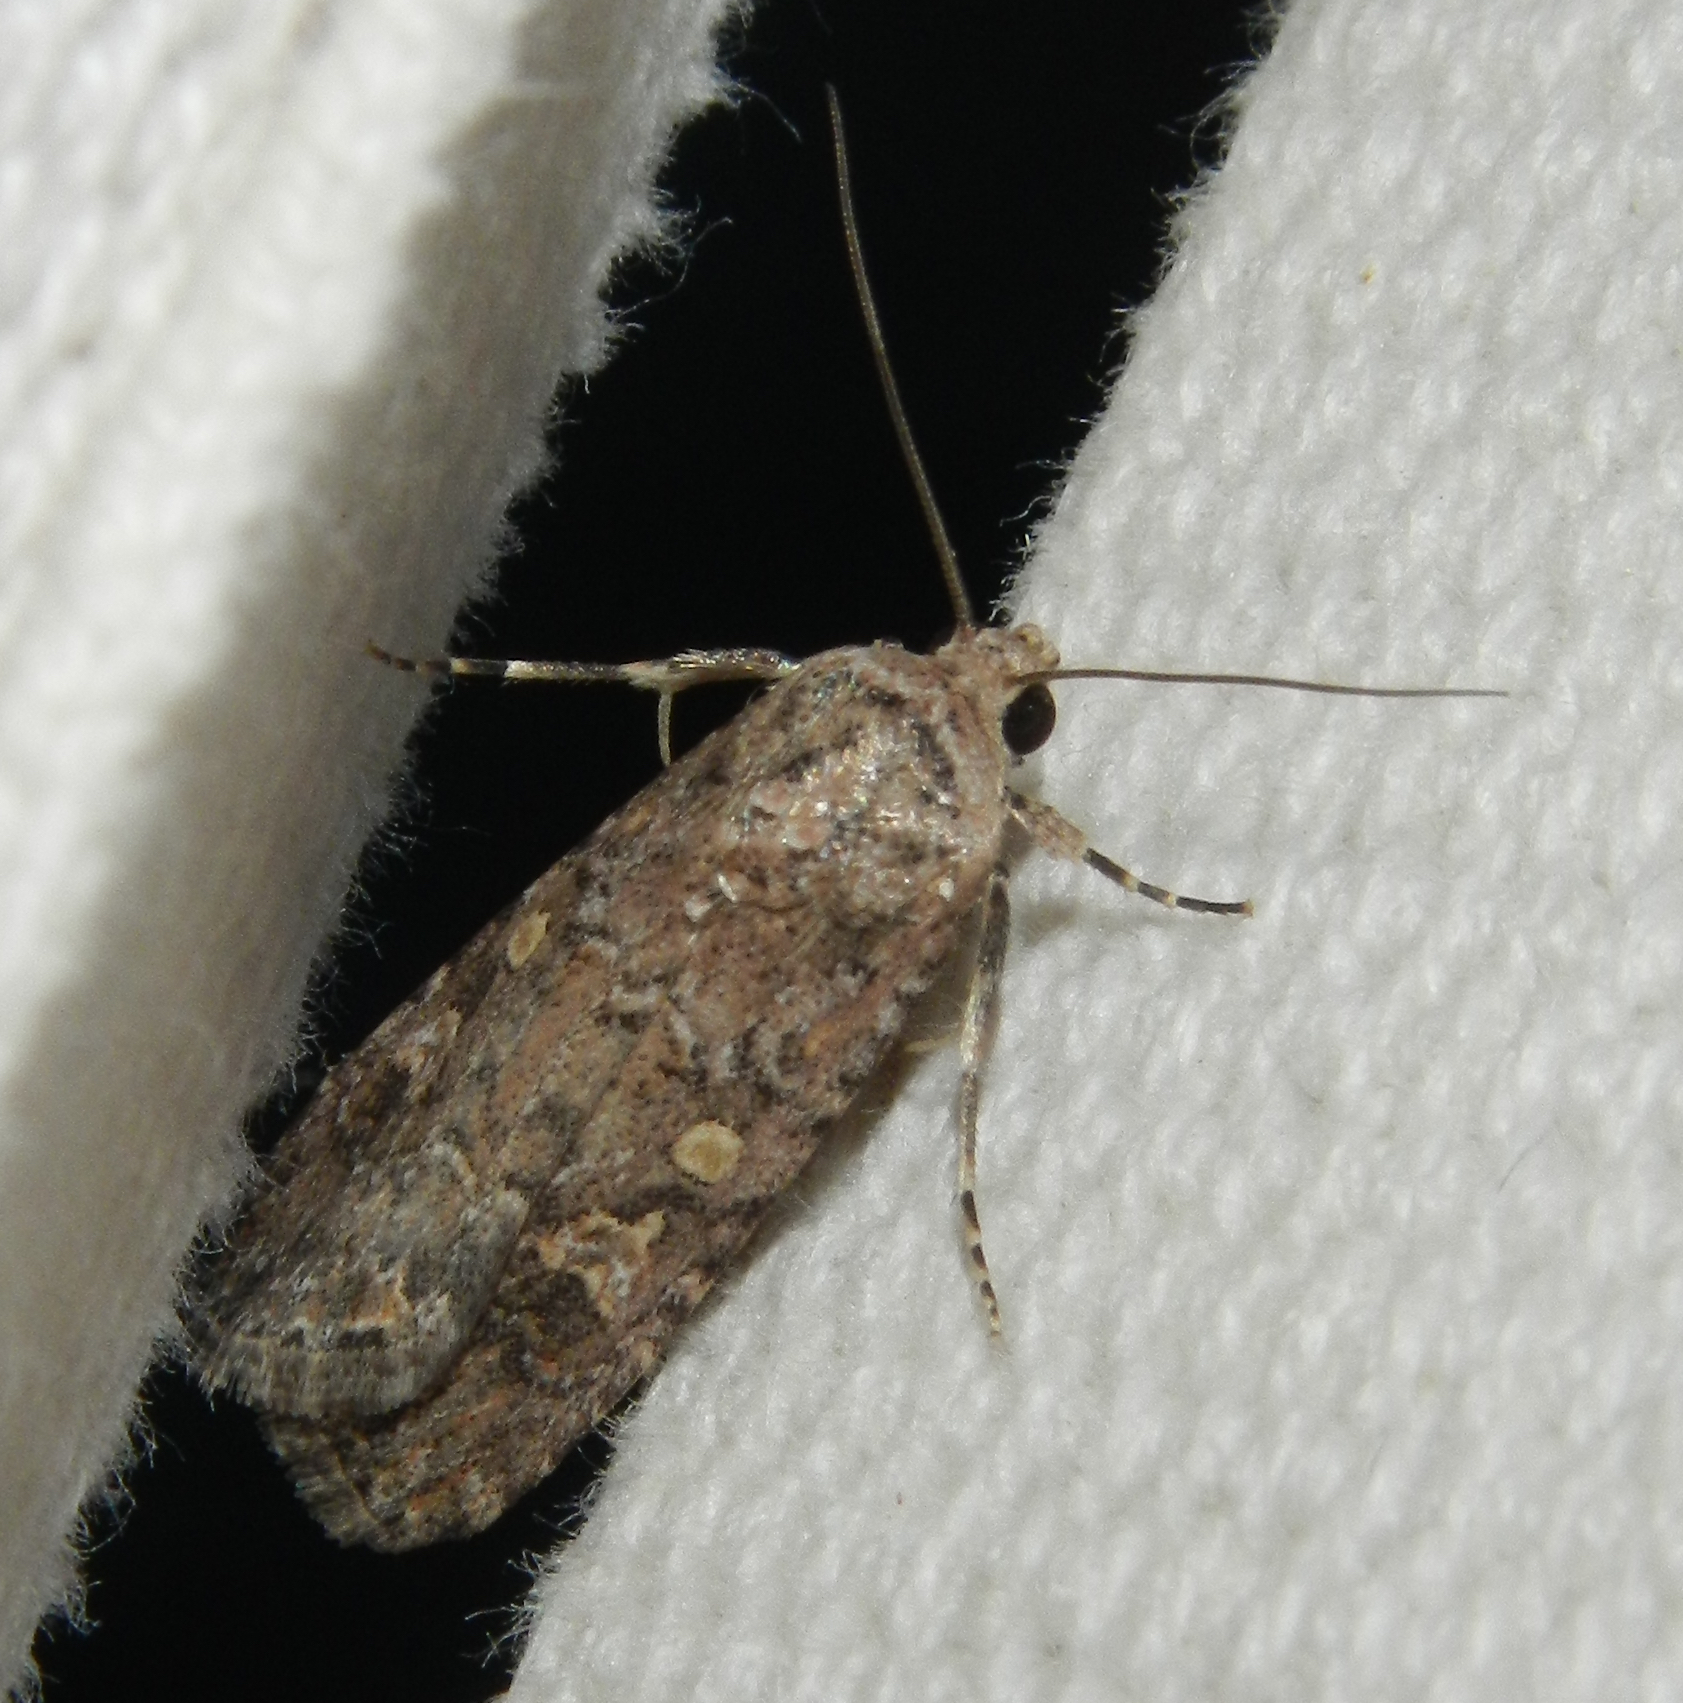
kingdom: Animalia
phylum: Arthropoda
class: Insecta
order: Lepidoptera
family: Noctuidae
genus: Spodoptera
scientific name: Spodoptera exigua
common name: Beet armyworm
